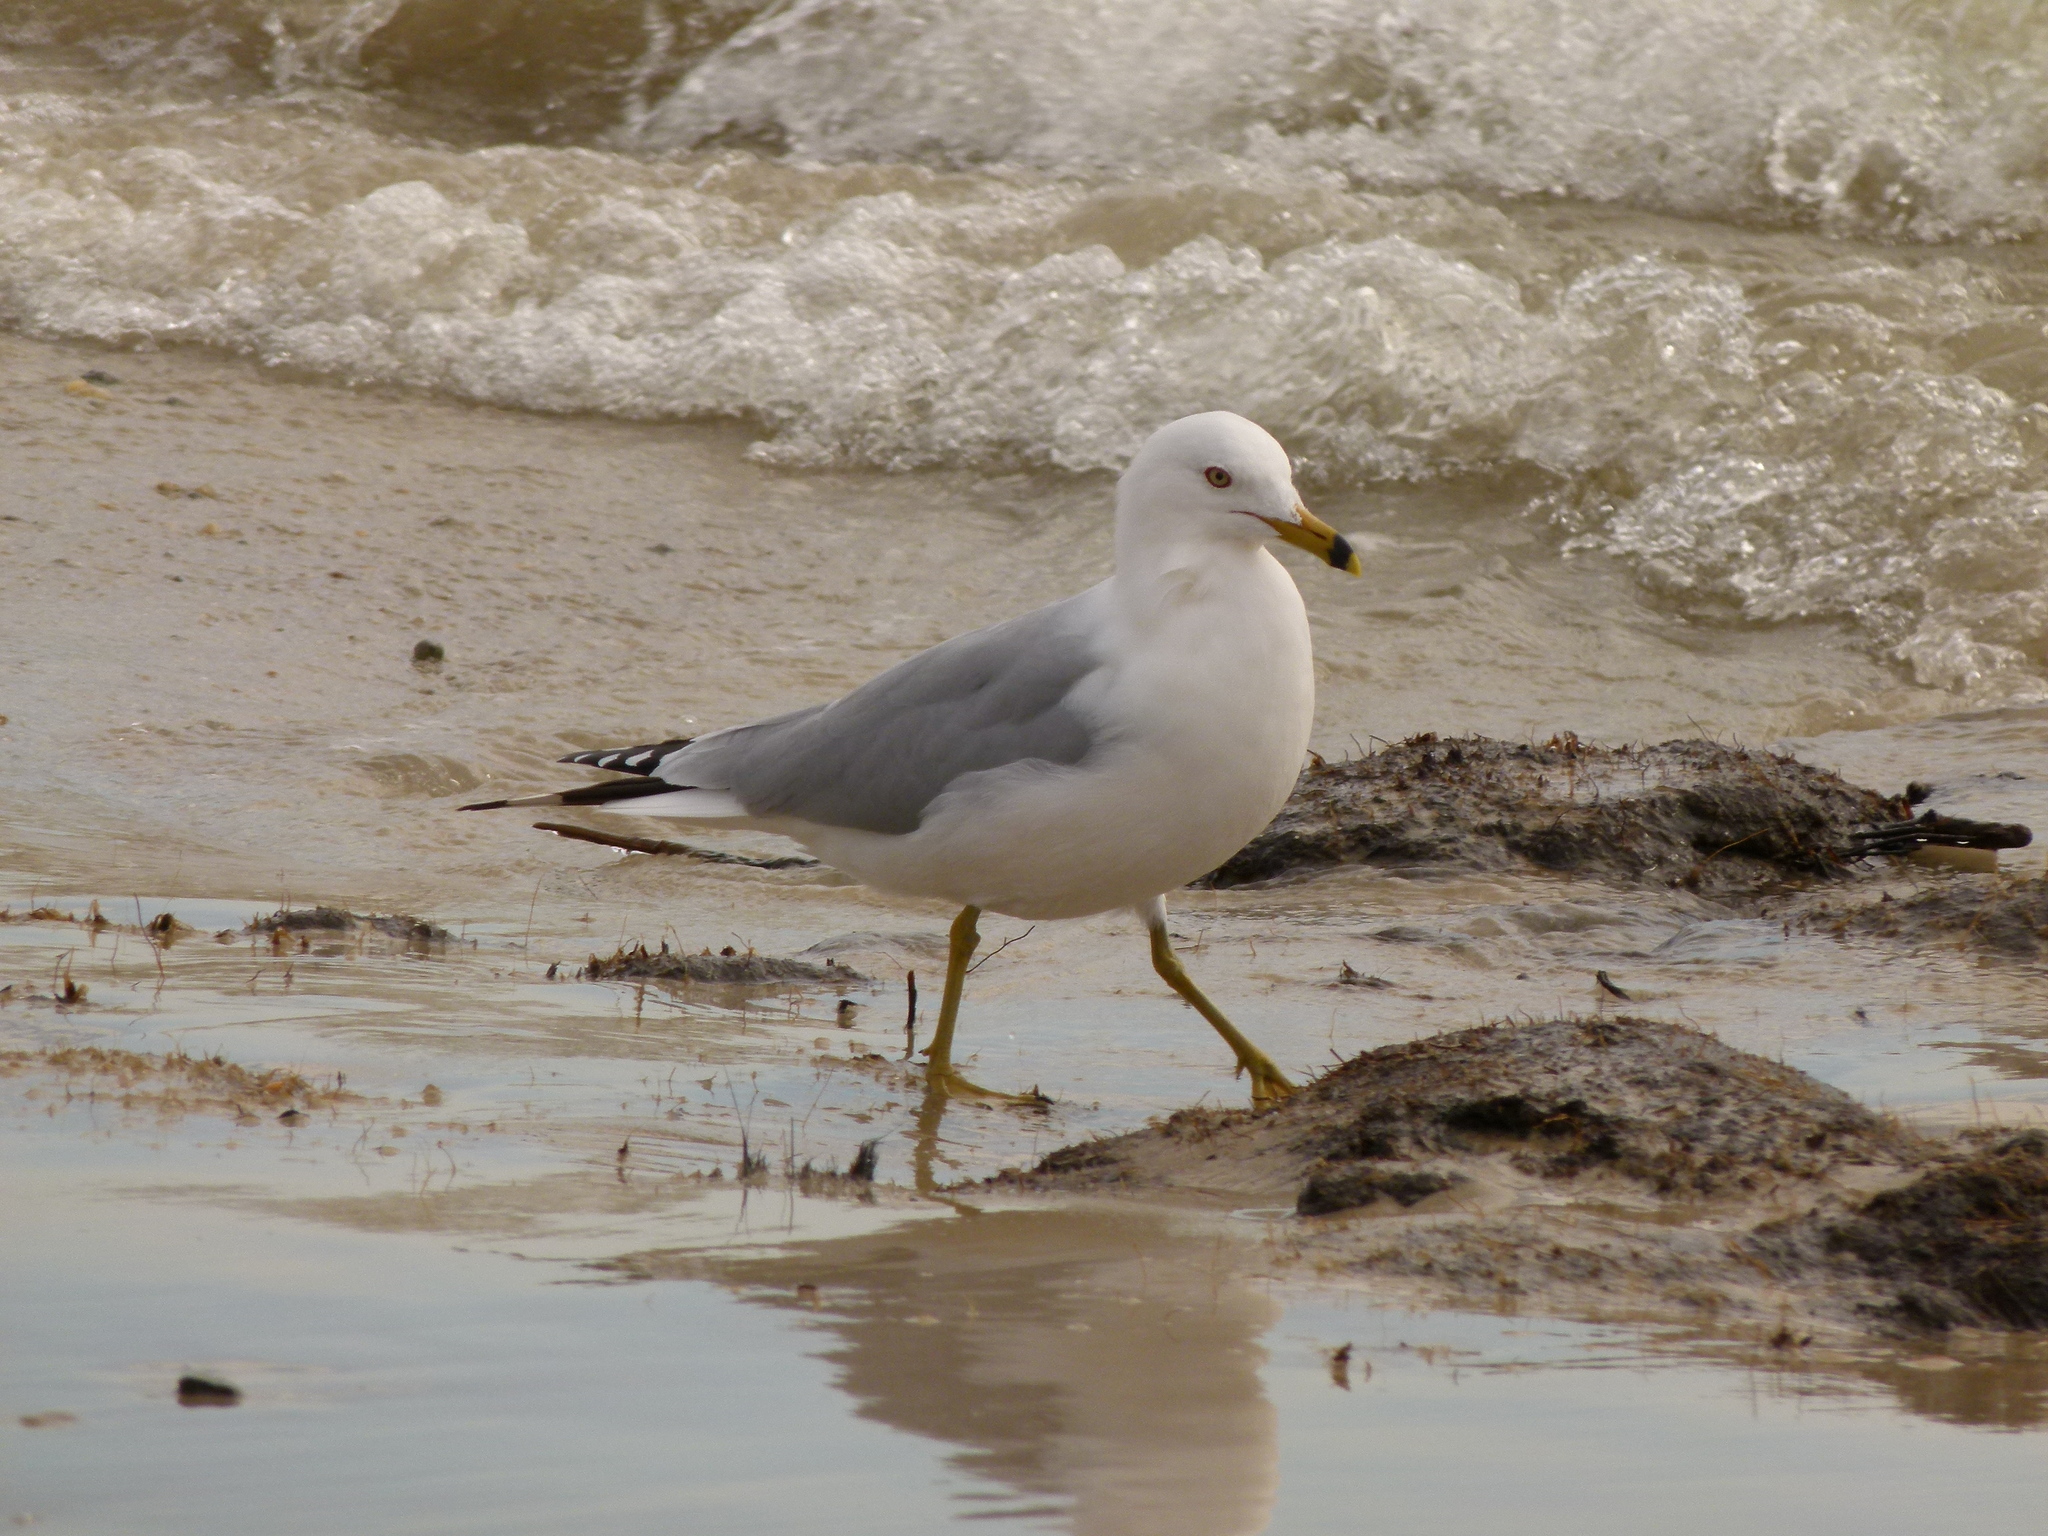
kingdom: Animalia
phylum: Chordata
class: Aves
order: Charadriiformes
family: Laridae
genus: Larus
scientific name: Larus delawarensis
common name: Ring-billed gull
